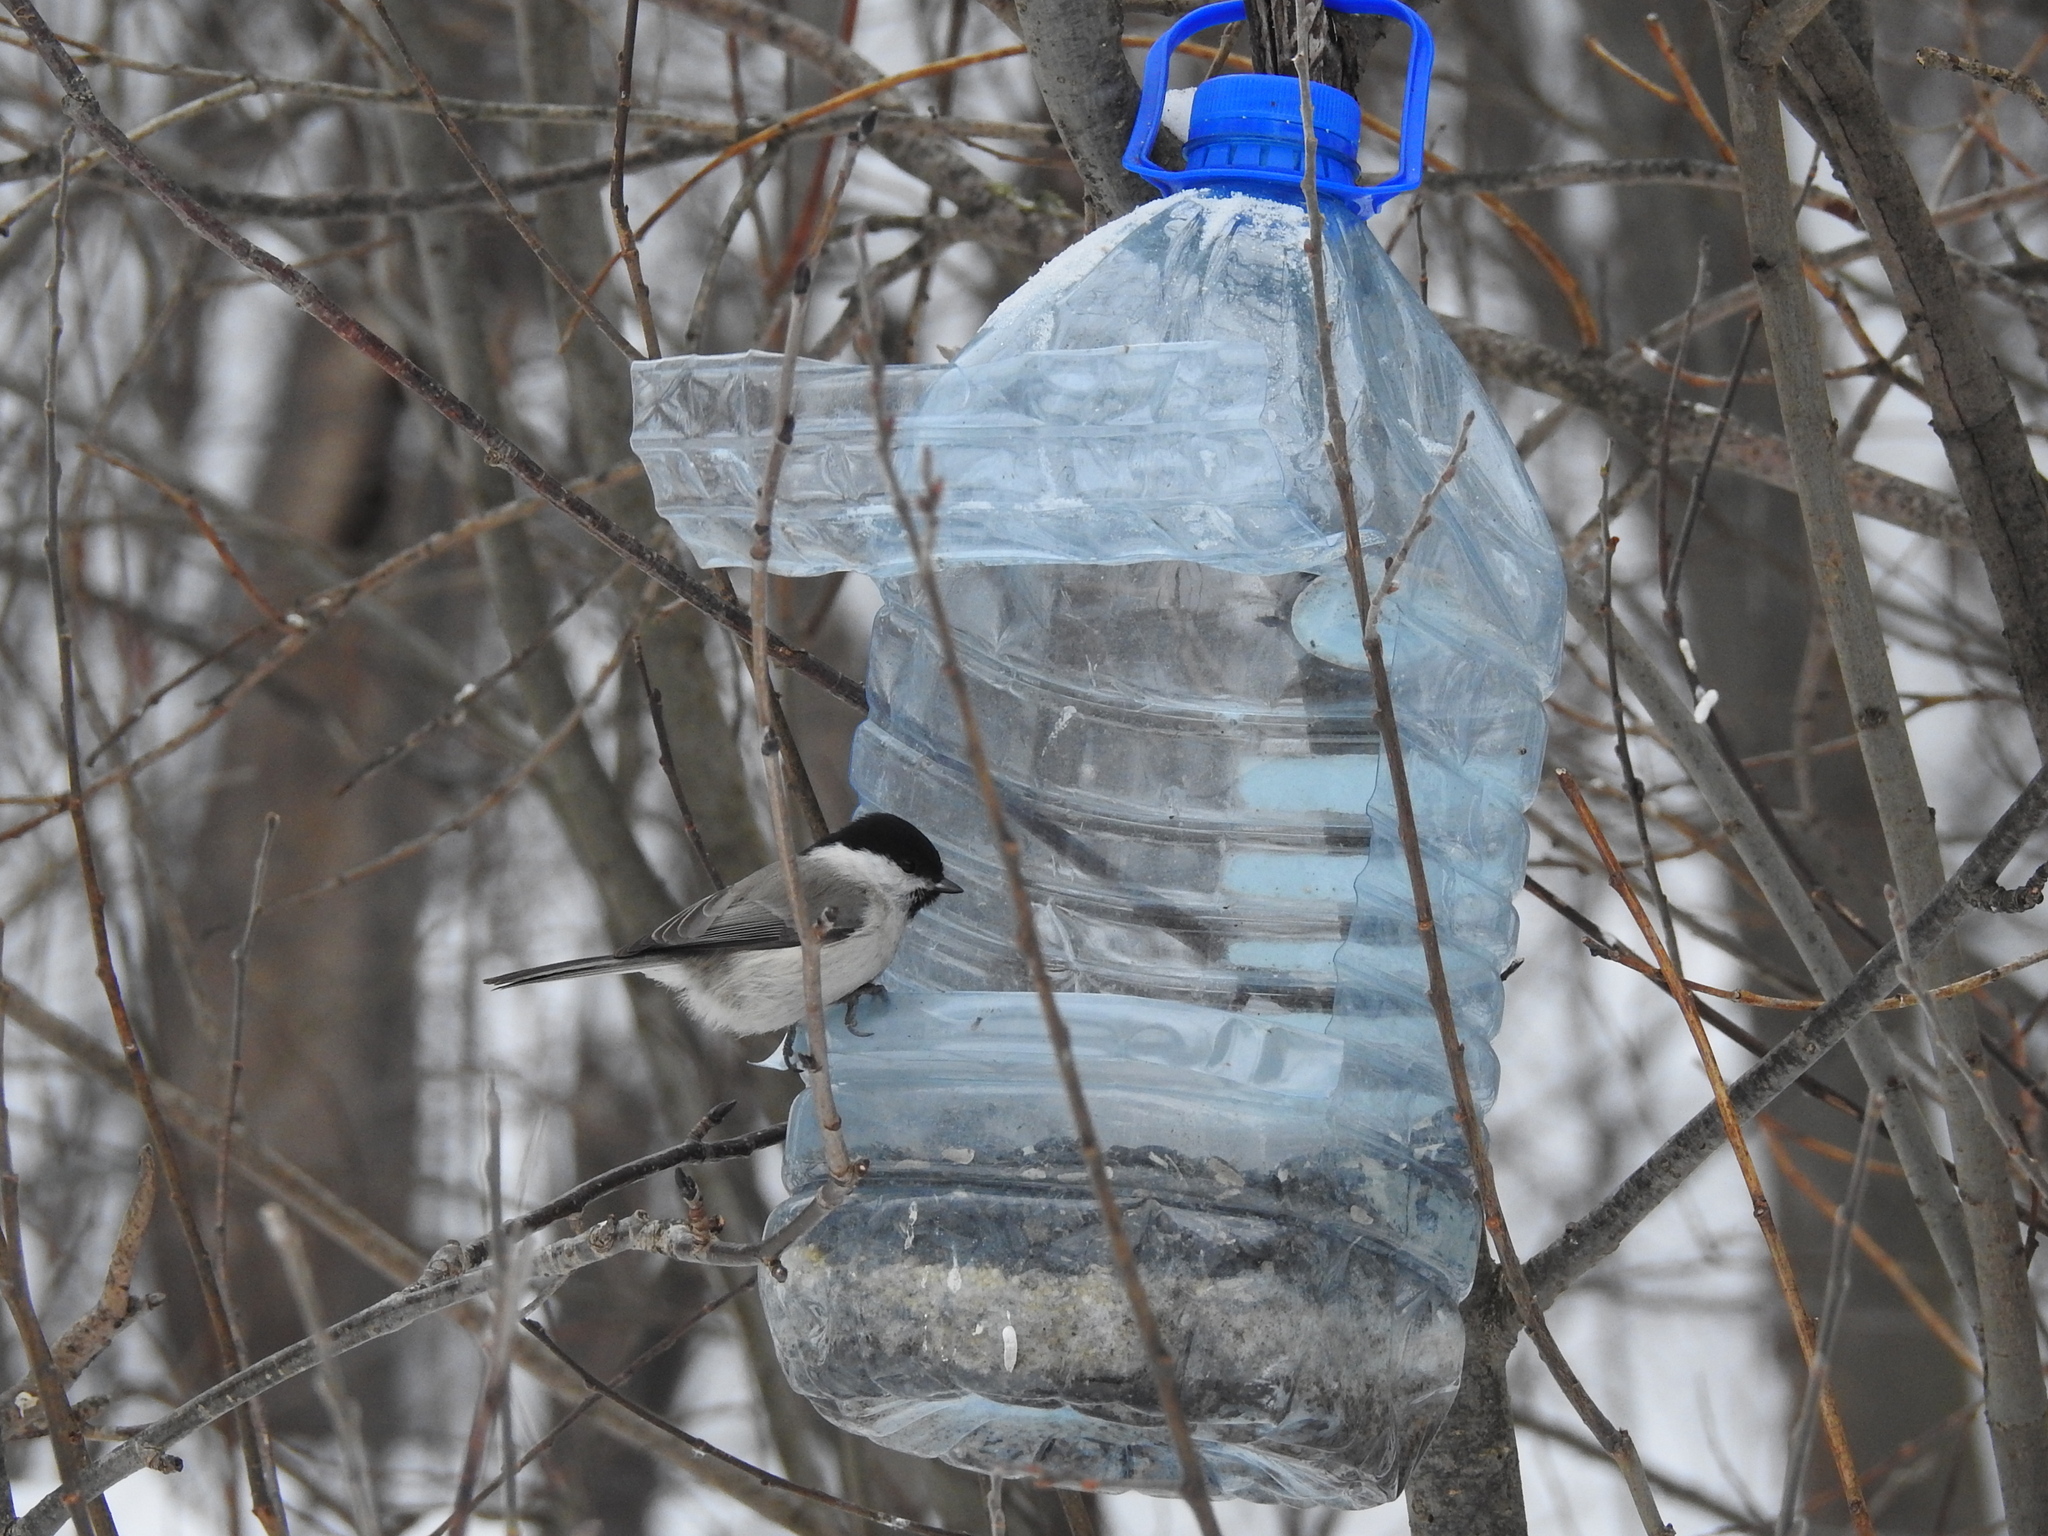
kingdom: Animalia
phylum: Chordata
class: Aves
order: Passeriformes
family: Paridae
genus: Poecile
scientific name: Poecile palustris
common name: Marsh tit
